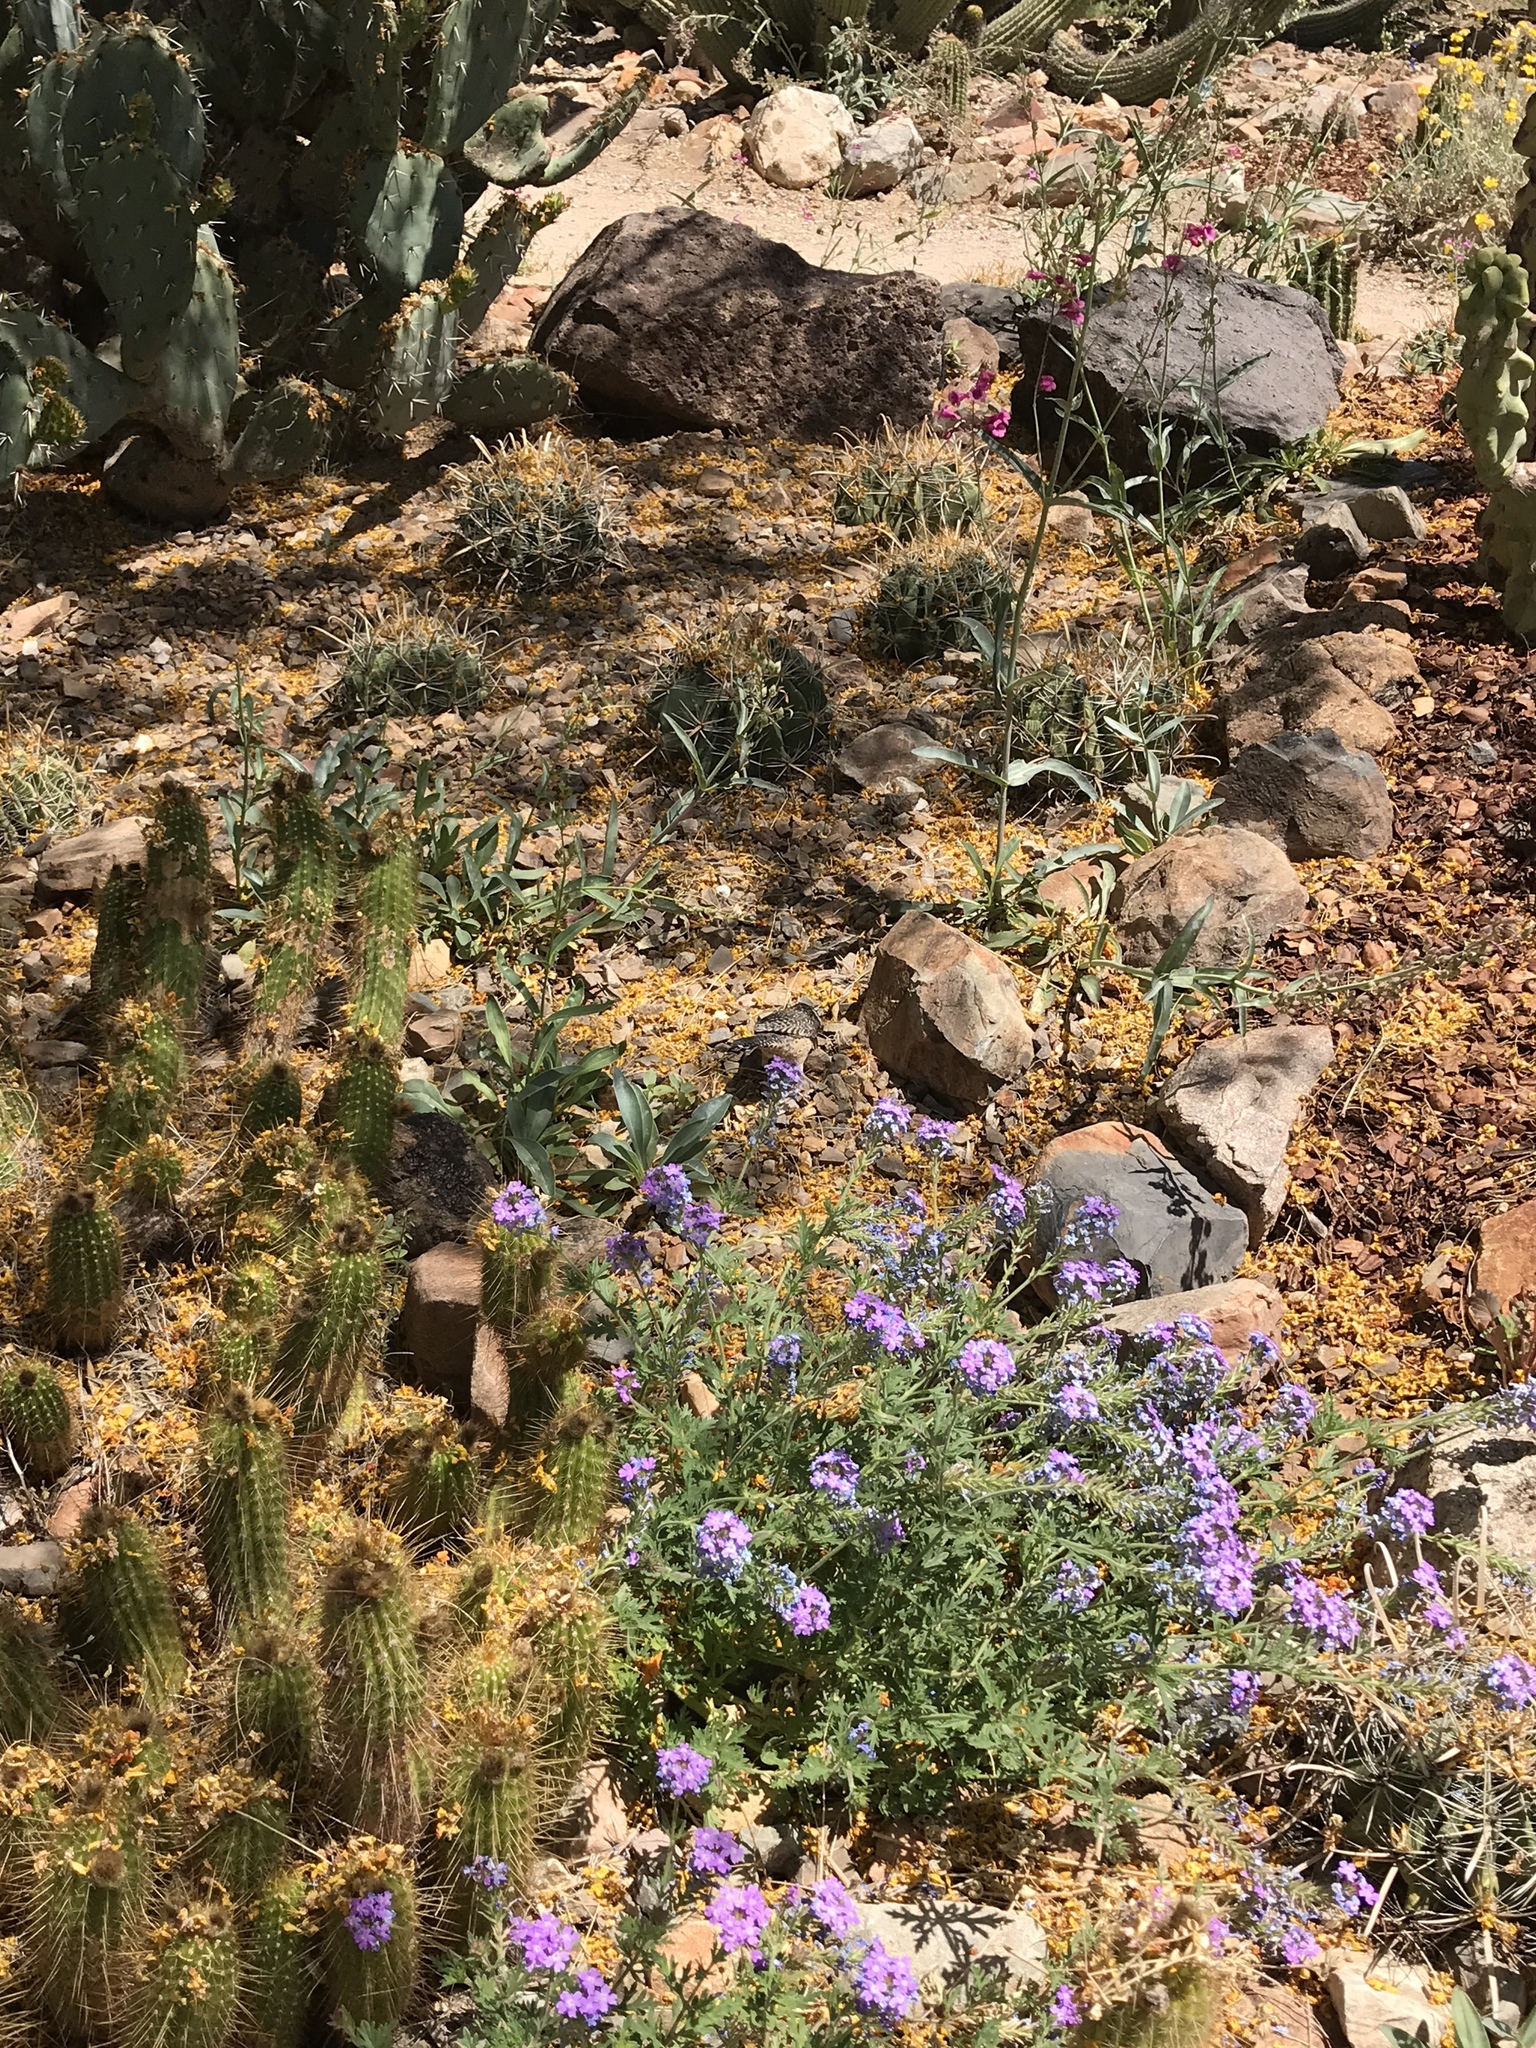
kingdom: Animalia
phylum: Chordata
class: Aves
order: Passeriformes
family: Troglodytidae
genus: Campylorhynchus
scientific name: Campylorhynchus brunneicapillus
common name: Cactus wren
